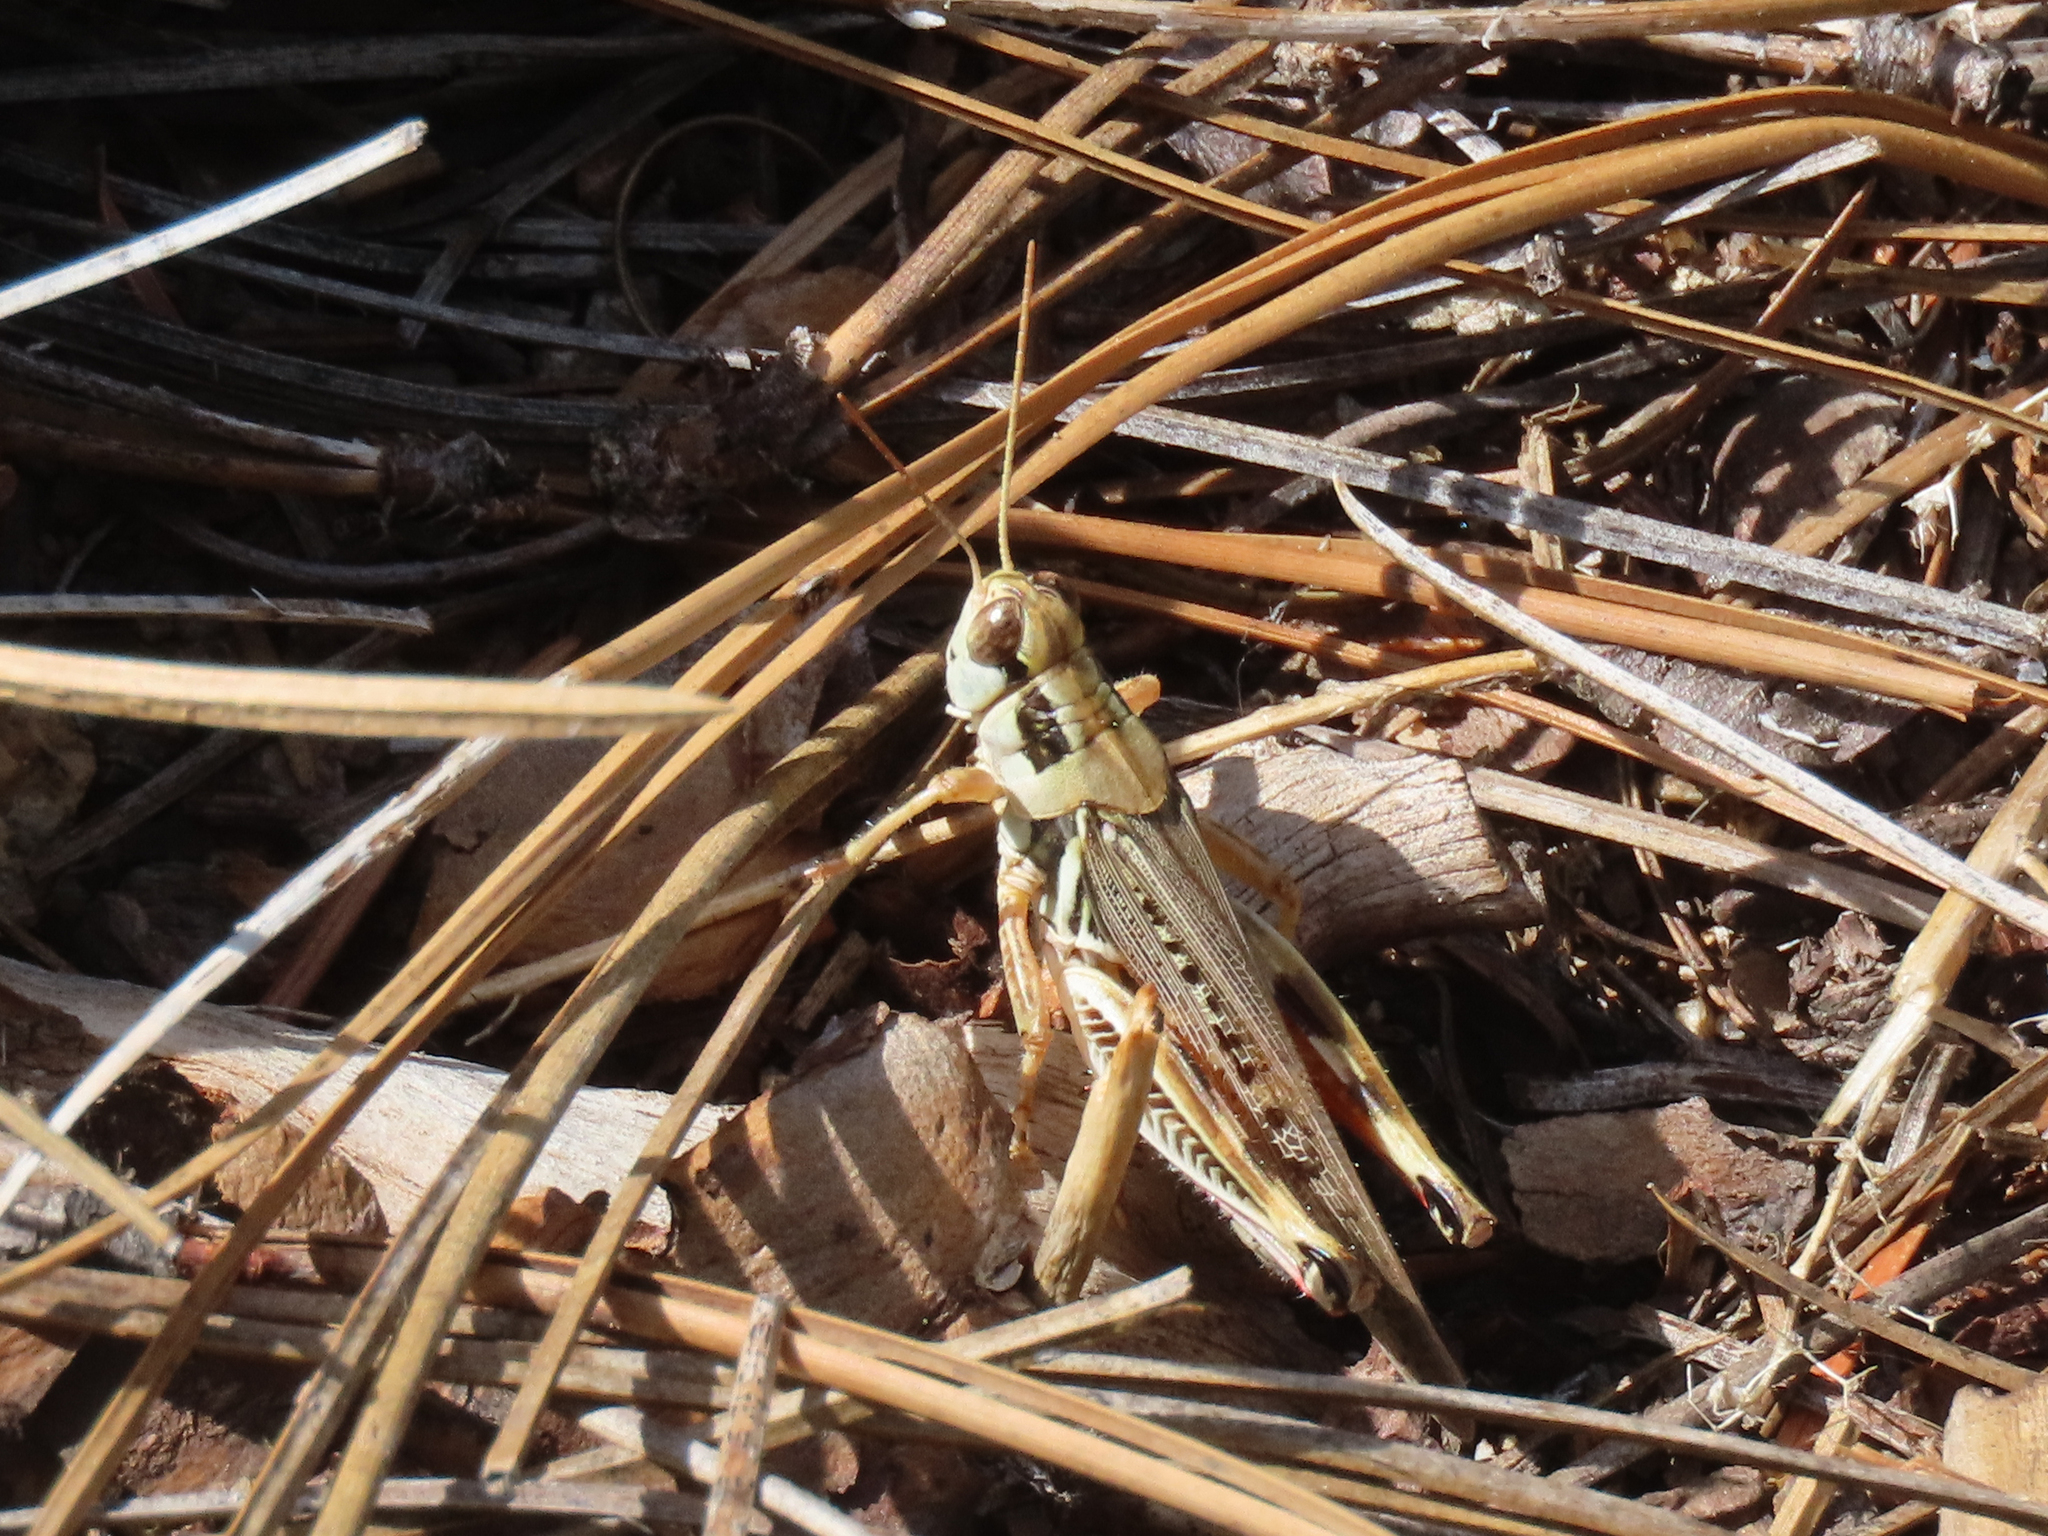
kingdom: Animalia
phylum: Arthropoda
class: Insecta
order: Orthoptera
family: Acrididae
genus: Melanoplus
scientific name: Melanoplus lakinus
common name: Lakin grasshopper
